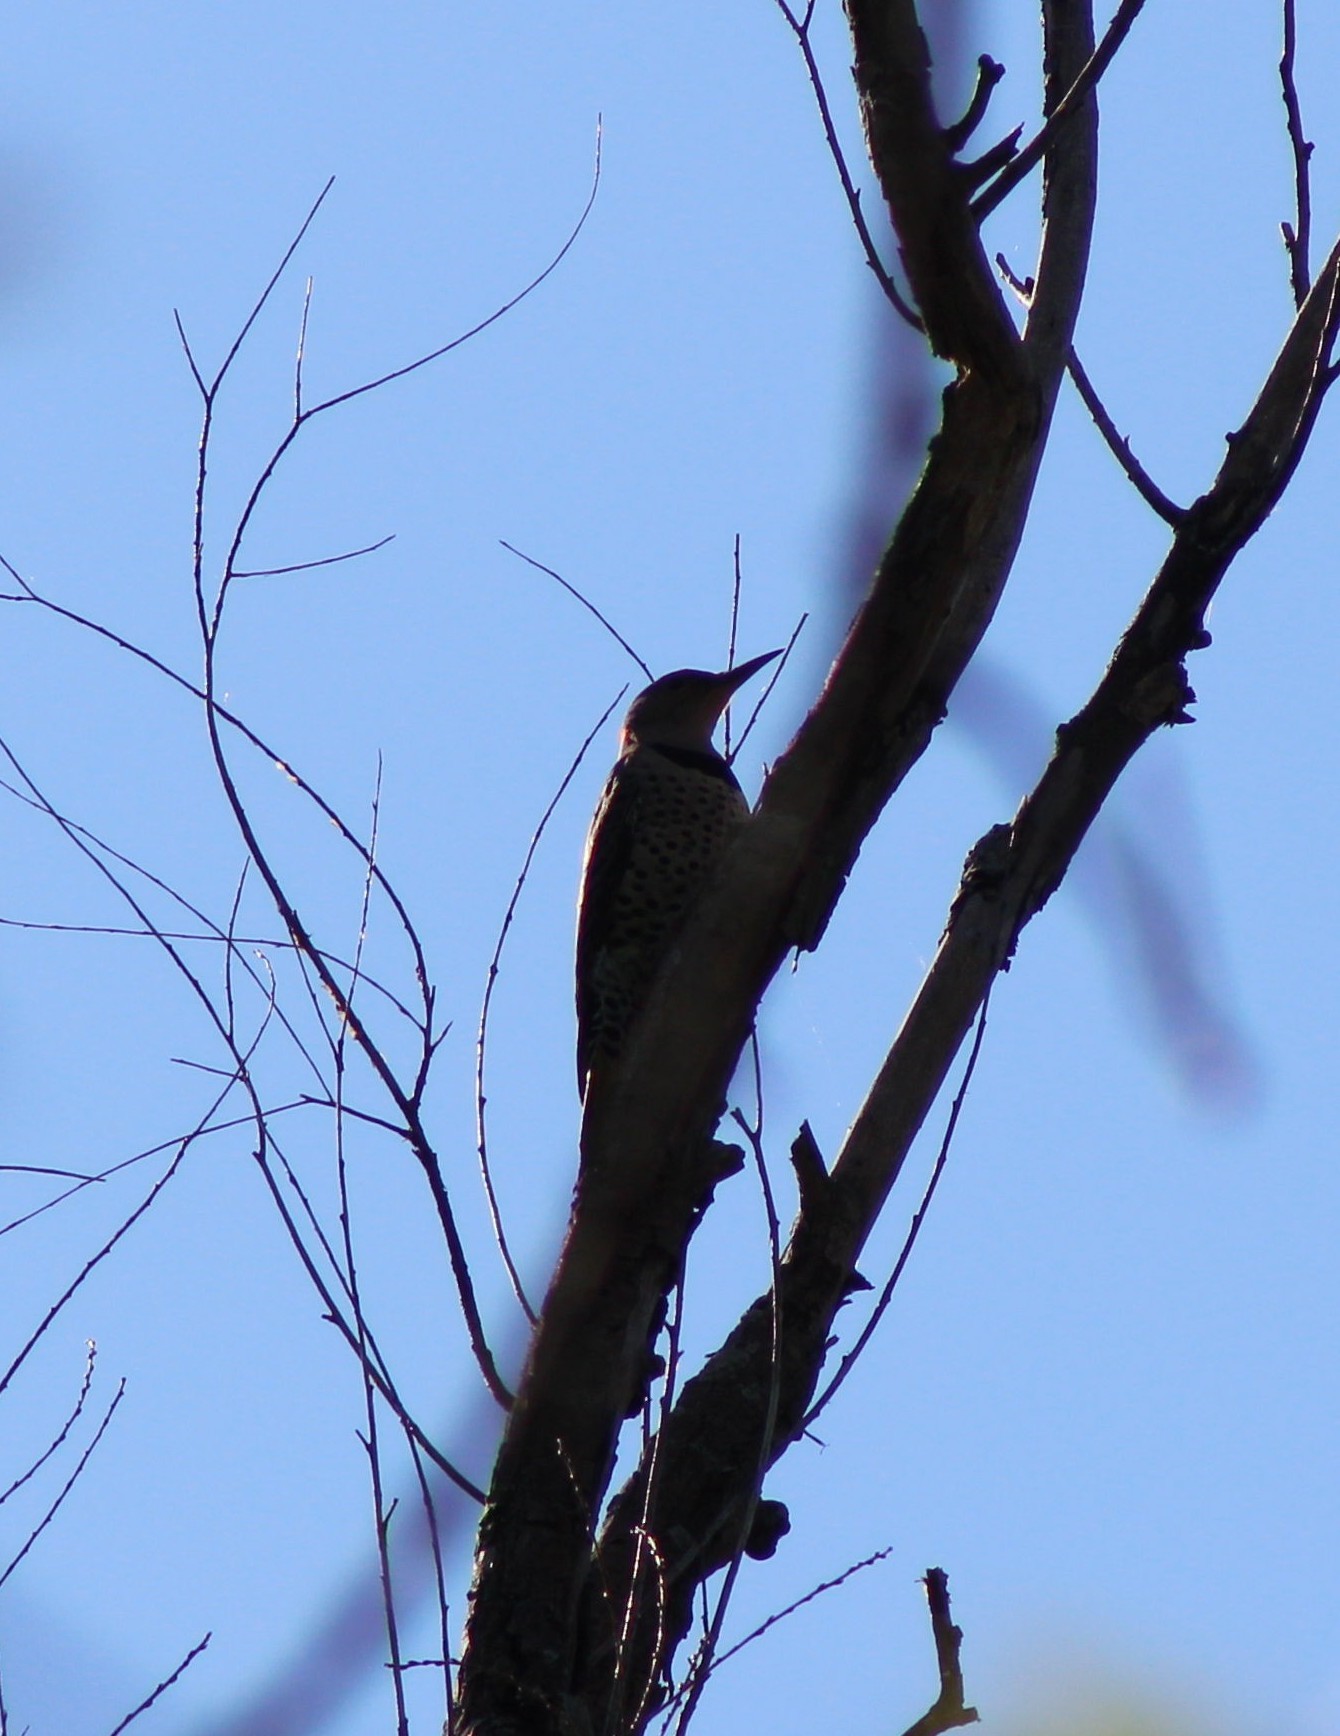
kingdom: Animalia
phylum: Chordata
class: Aves
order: Piciformes
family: Picidae
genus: Colaptes
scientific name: Colaptes auratus
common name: Northern flicker
